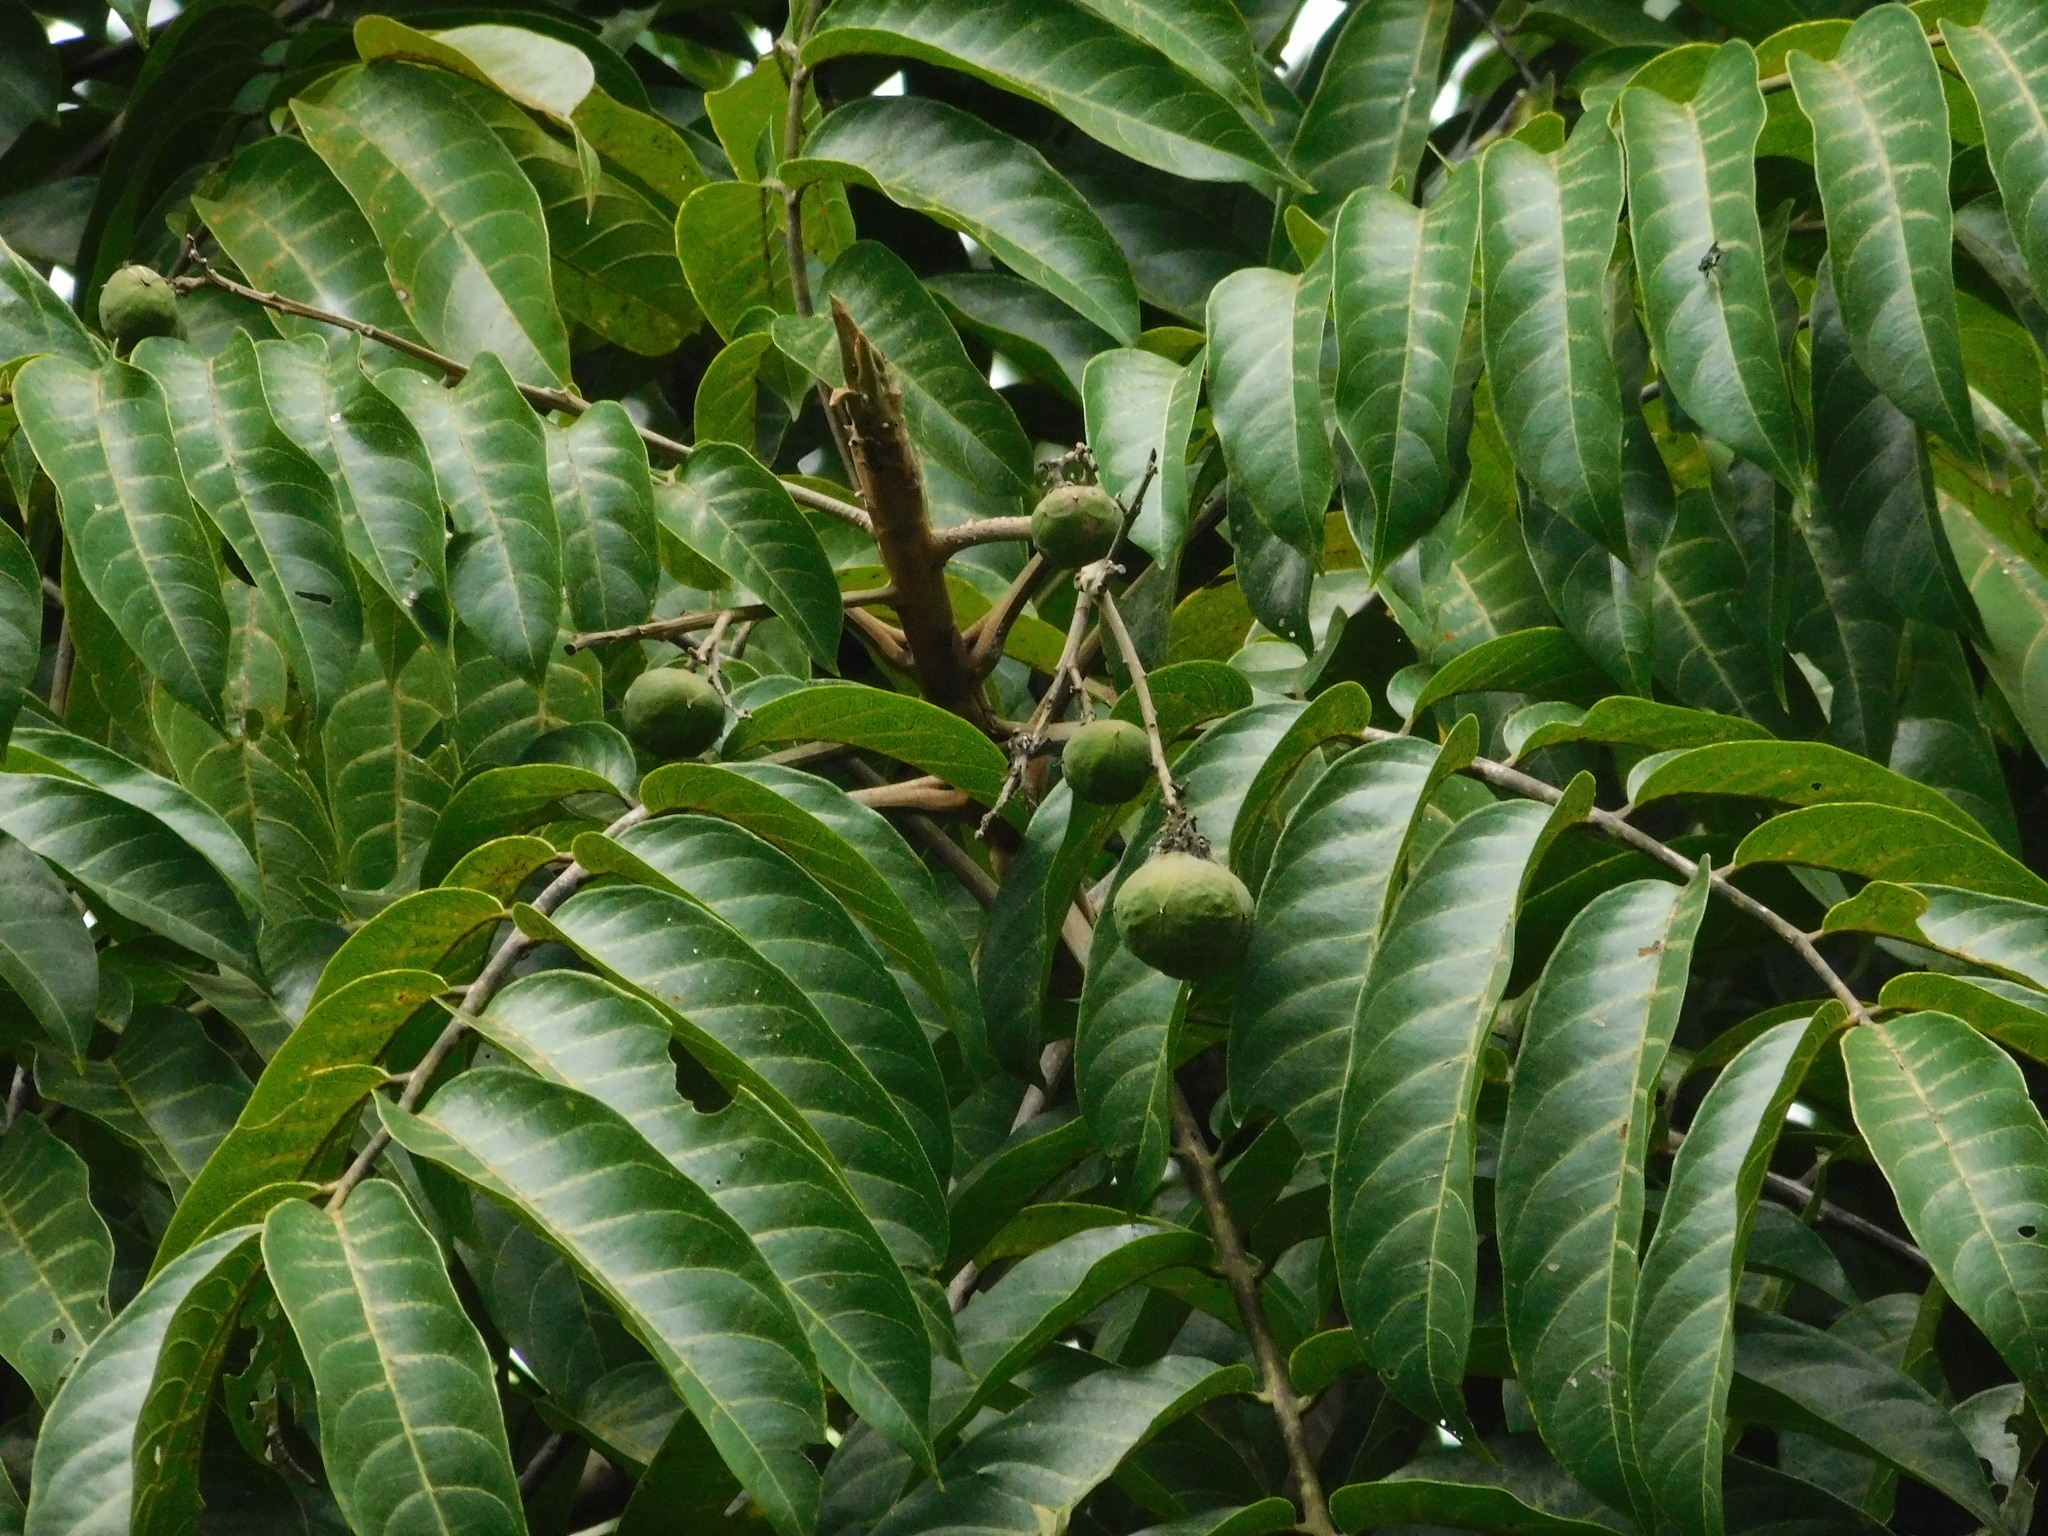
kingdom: Plantae
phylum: Tracheophyta
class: Magnoliopsida
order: Sapindales
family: Anacardiaceae
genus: Dracontomelon
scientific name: Dracontomelon dao
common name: Argus pheasant-tree
